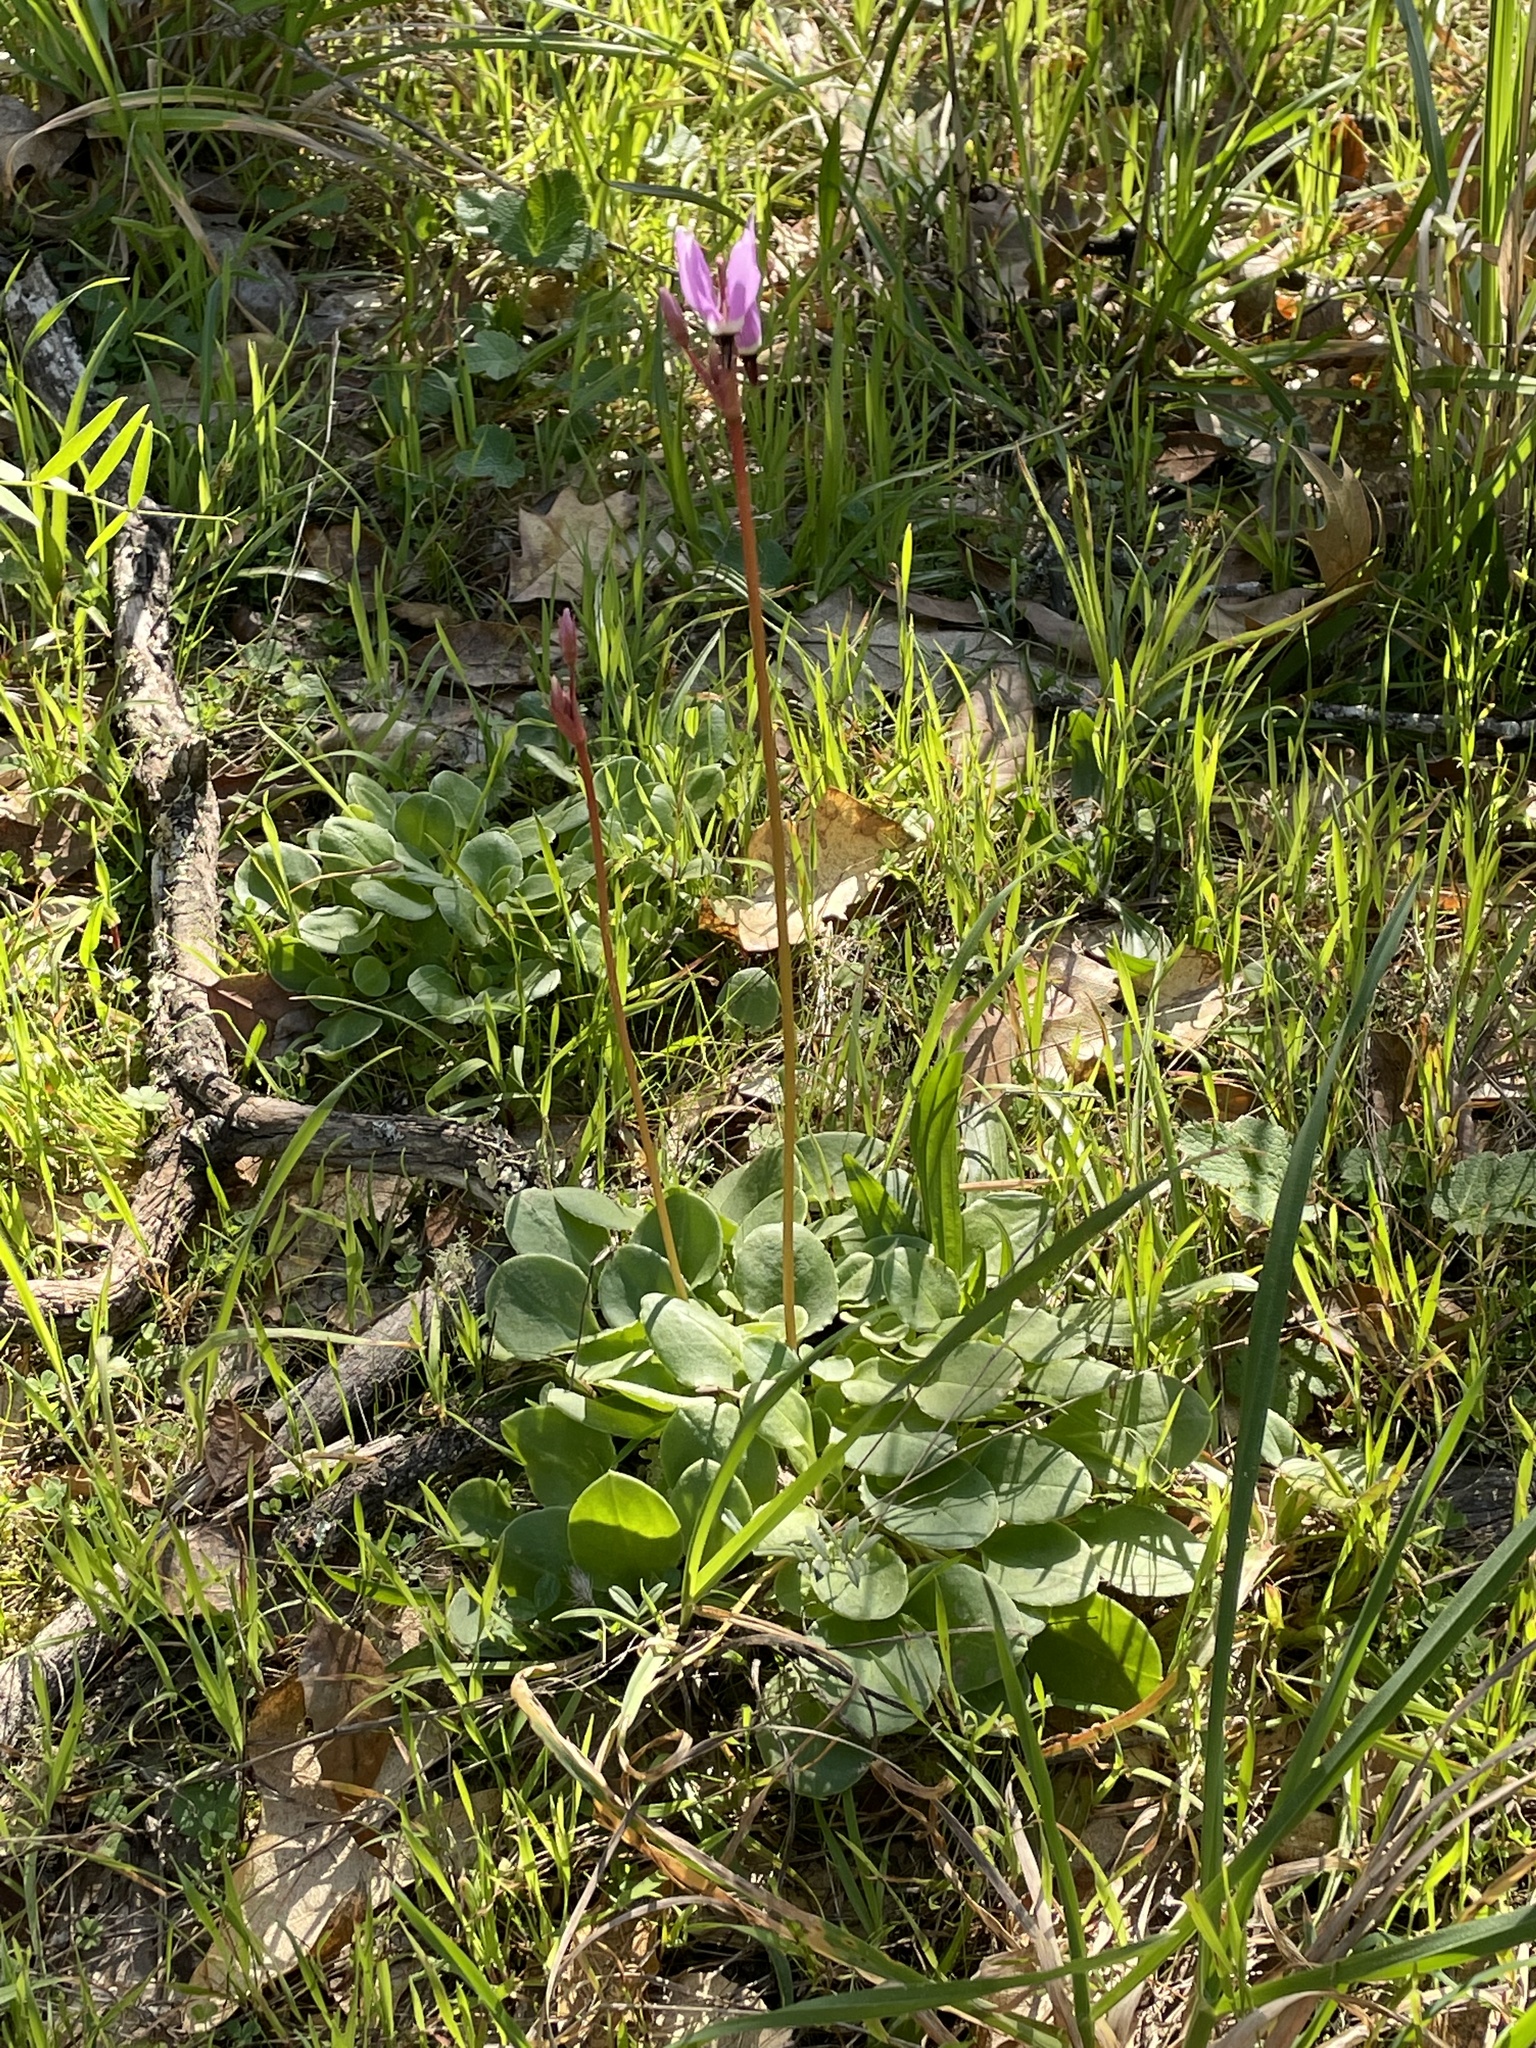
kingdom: Plantae
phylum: Tracheophyta
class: Magnoliopsida
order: Ericales
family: Primulaceae
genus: Dodecatheon
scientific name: Dodecatheon hendersonii
